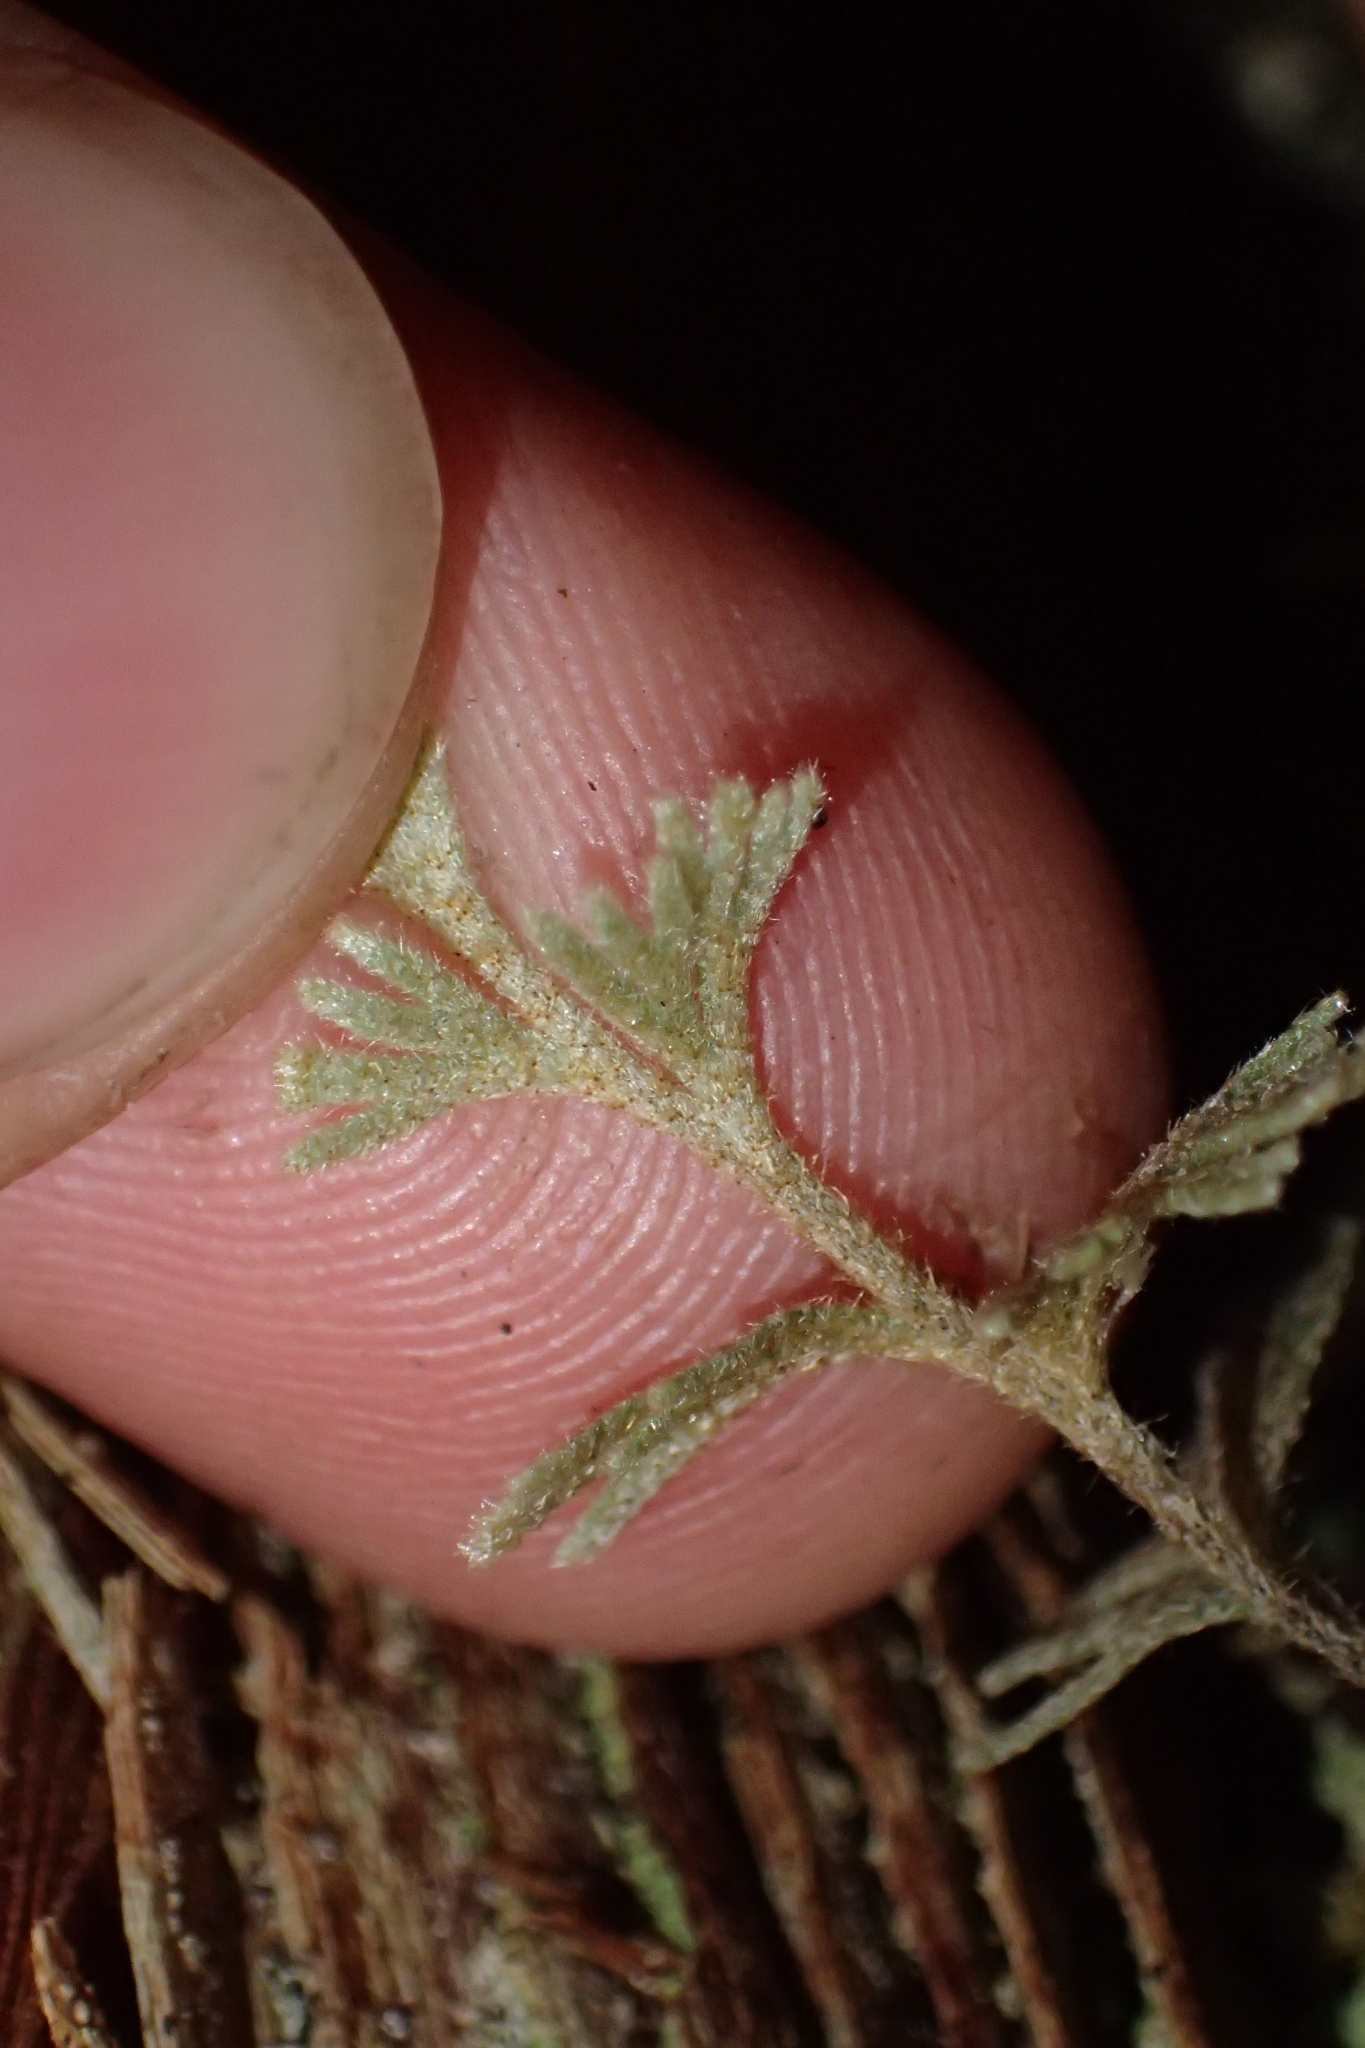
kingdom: Plantae
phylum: Tracheophyta
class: Polypodiopsida
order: Hymenophyllales
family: Hymenophyllaceae
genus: Hymenophyllum
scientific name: Hymenophyllum malingii
